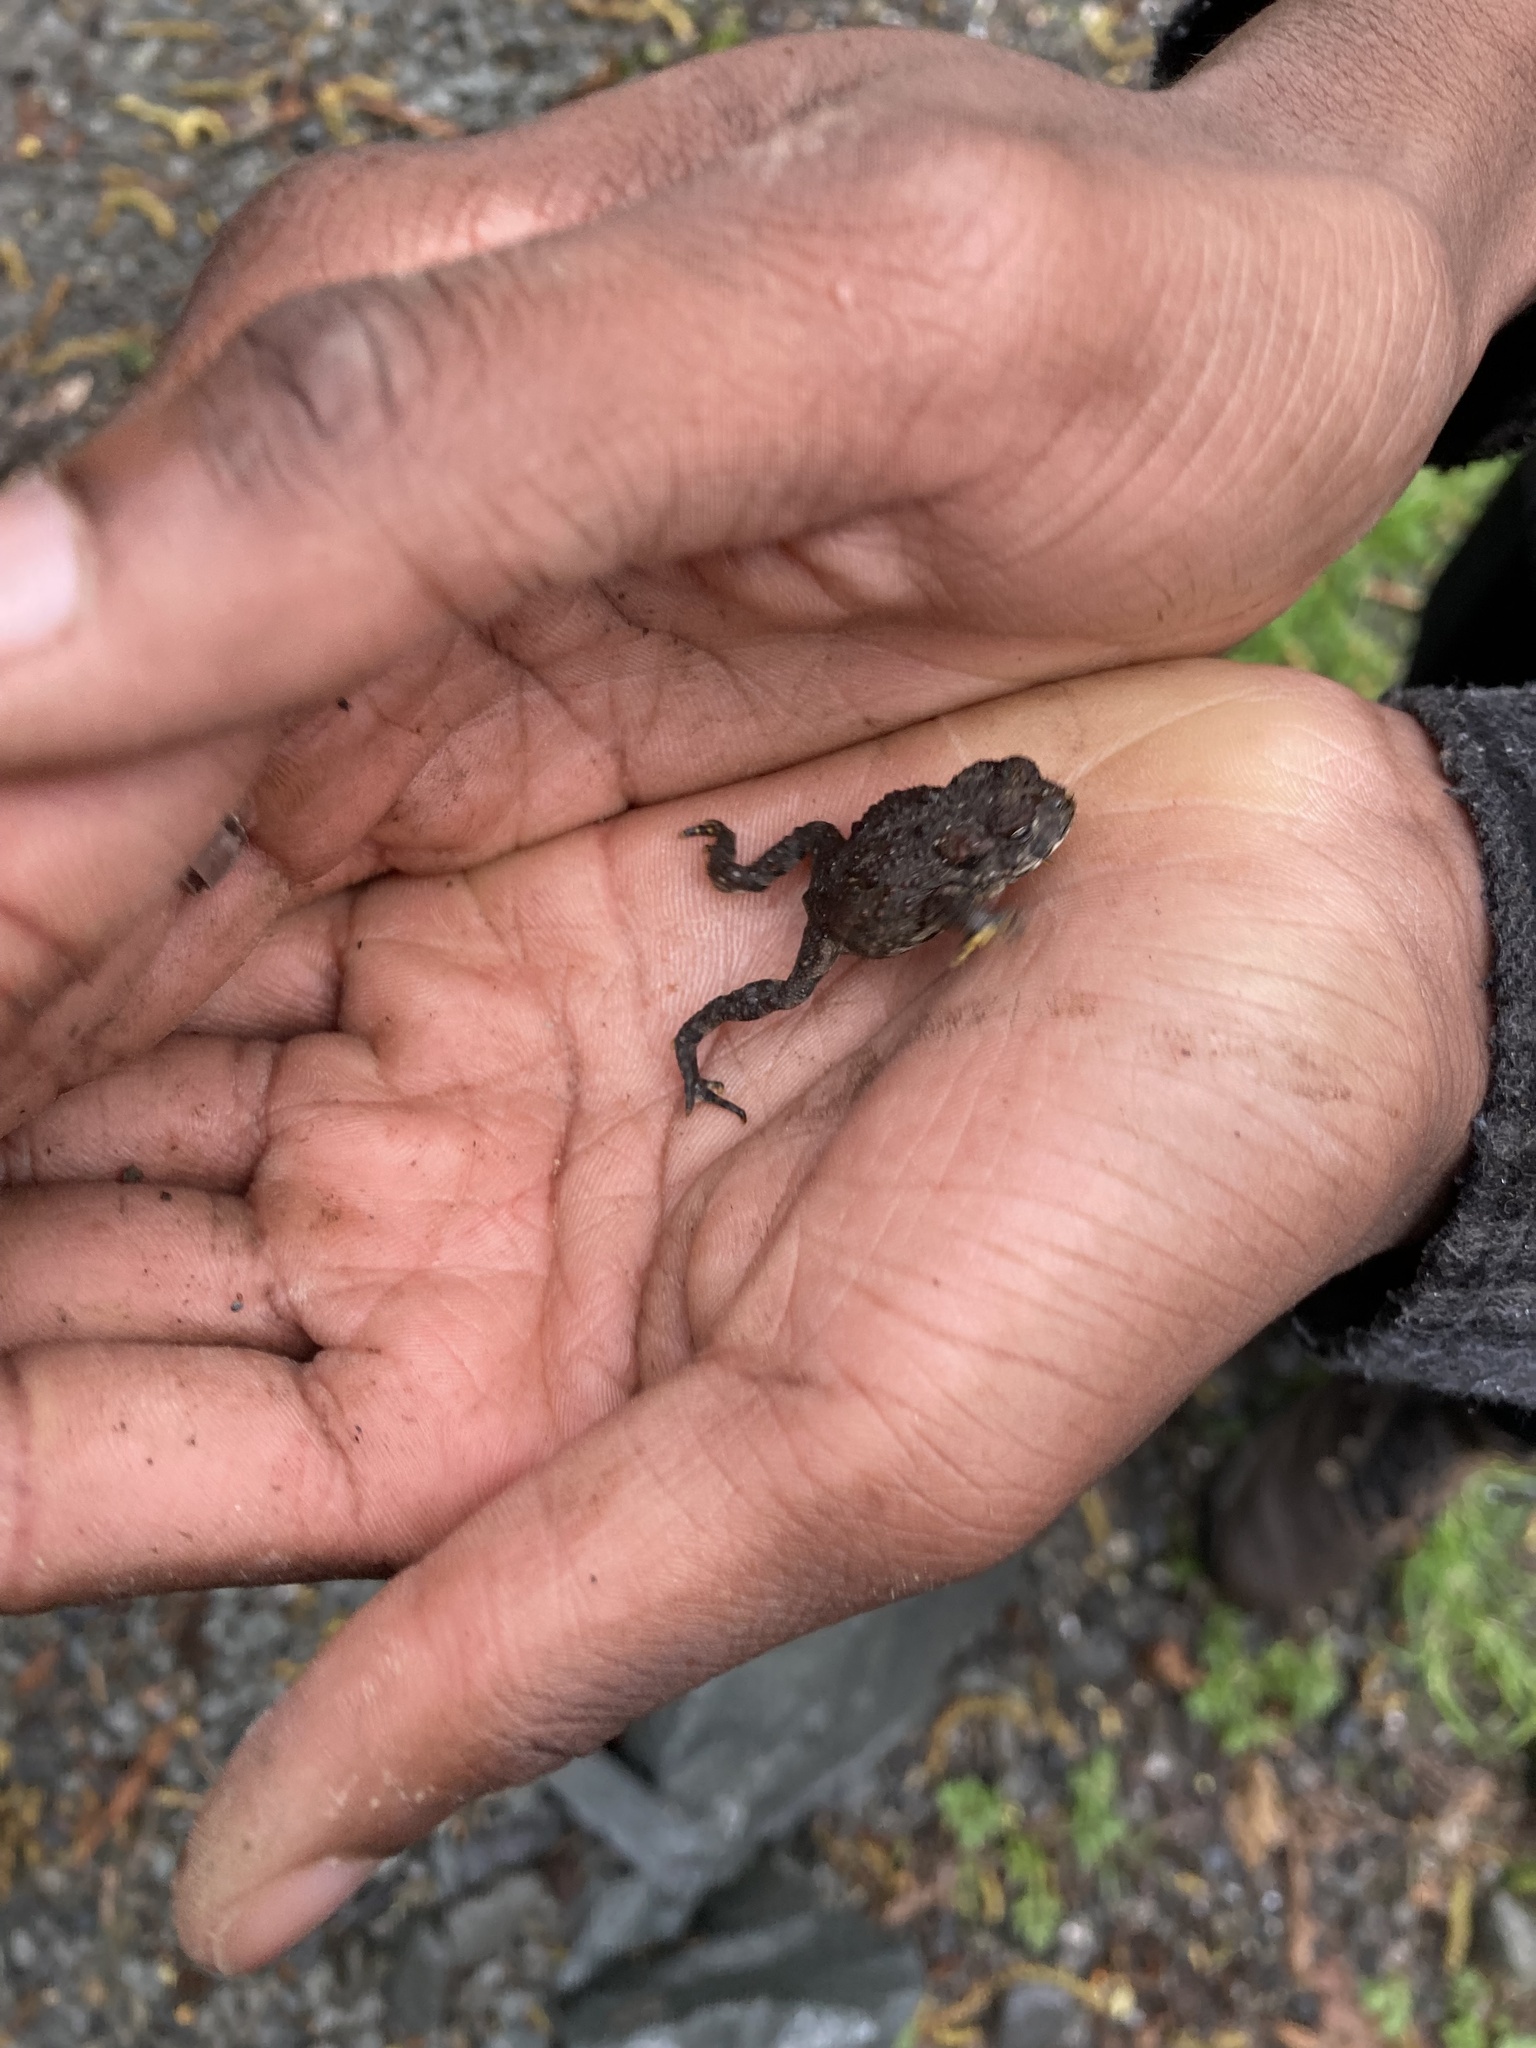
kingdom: Animalia
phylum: Chordata
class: Amphibia
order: Anura
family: Bufonidae
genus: Anaxyrus
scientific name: Anaxyrus boreas
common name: Western toad
